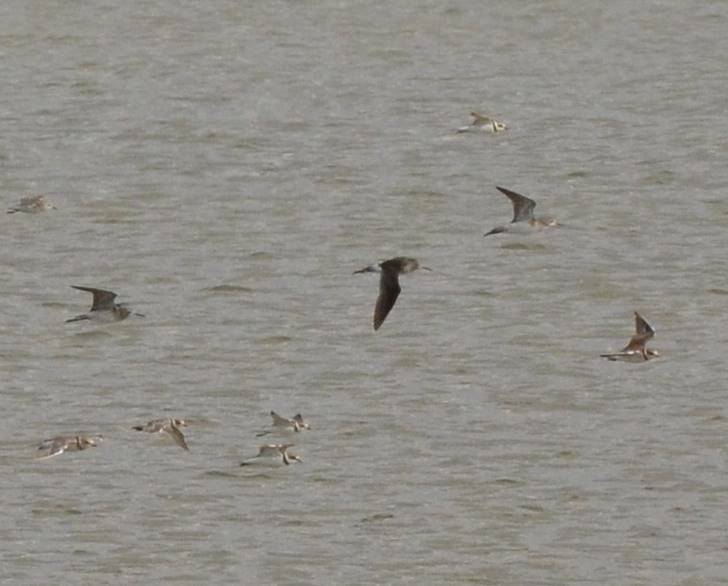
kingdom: Animalia
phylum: Chordata
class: Aves
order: Charadriiformes
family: Charadriidae
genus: Charadrius
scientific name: Charadrius hiaticula
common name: Common ringed plover
